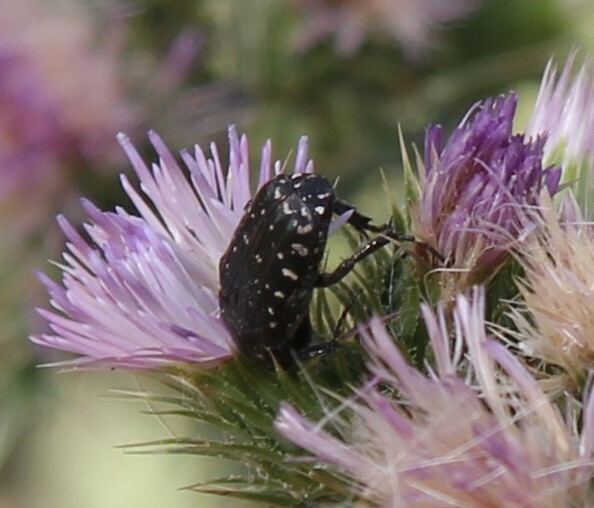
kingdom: Animalia
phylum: Arthropoda
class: Insecta
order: Coleoptera
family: Scarabaeidae
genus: Oxythyrea
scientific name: Oxythyrea funesta
